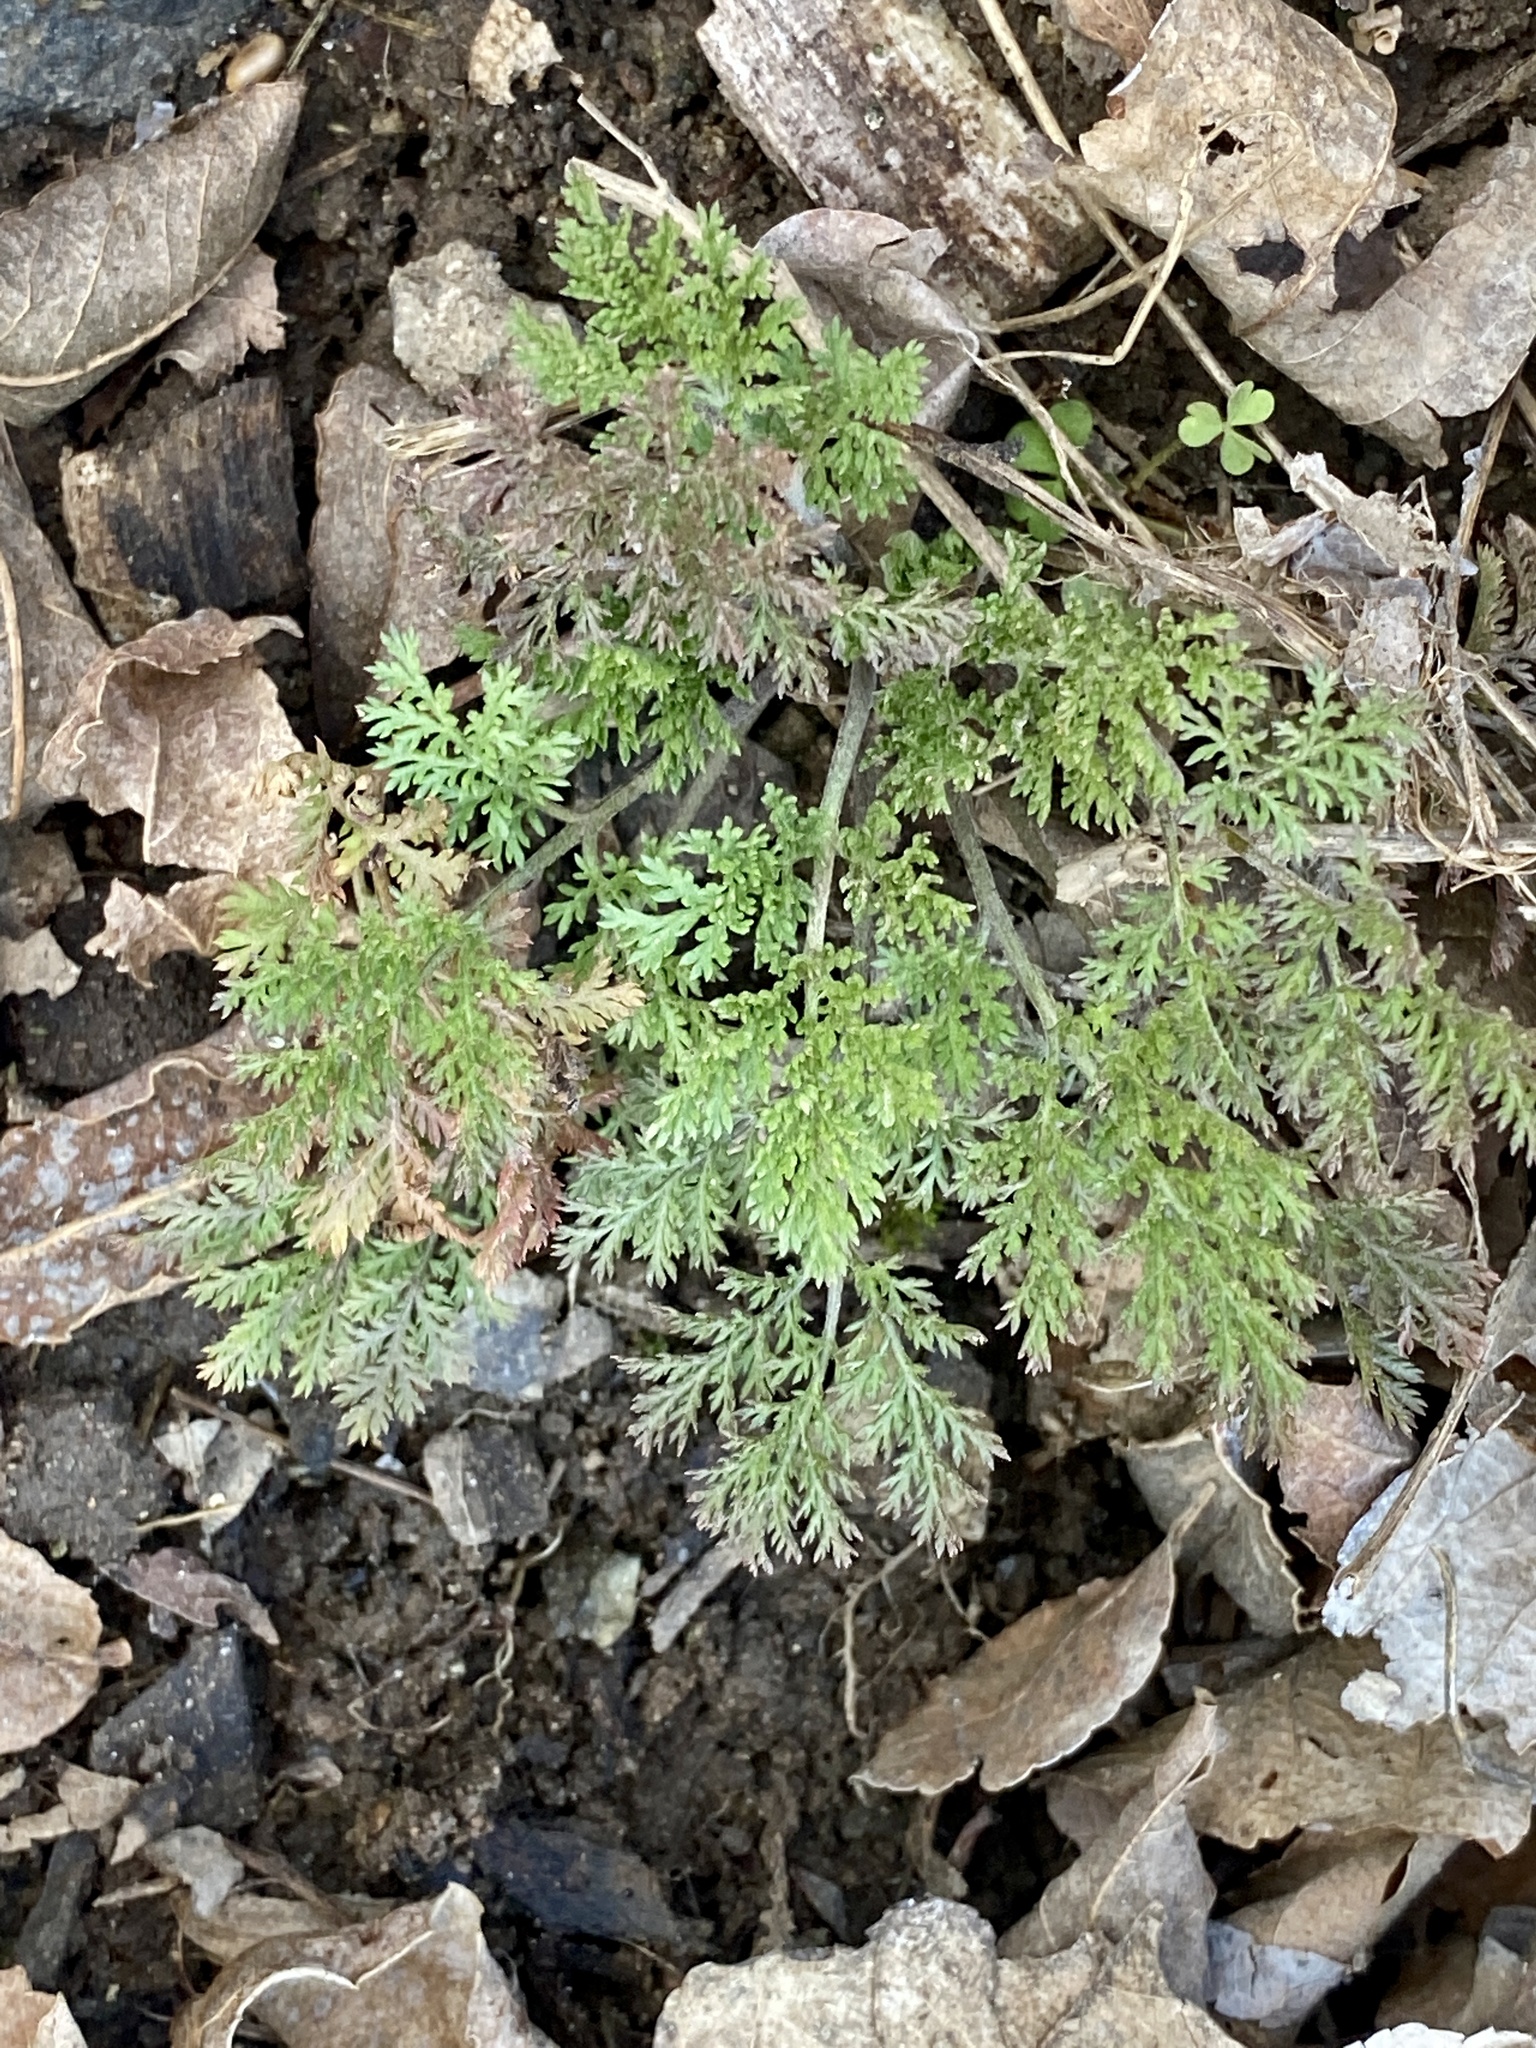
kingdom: Plantae
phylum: Tracheophyta
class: Magnoliopsida
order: Asterales
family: Asteraceae
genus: Artemisia
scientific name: Artemisia annua
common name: Sweet sagewort
